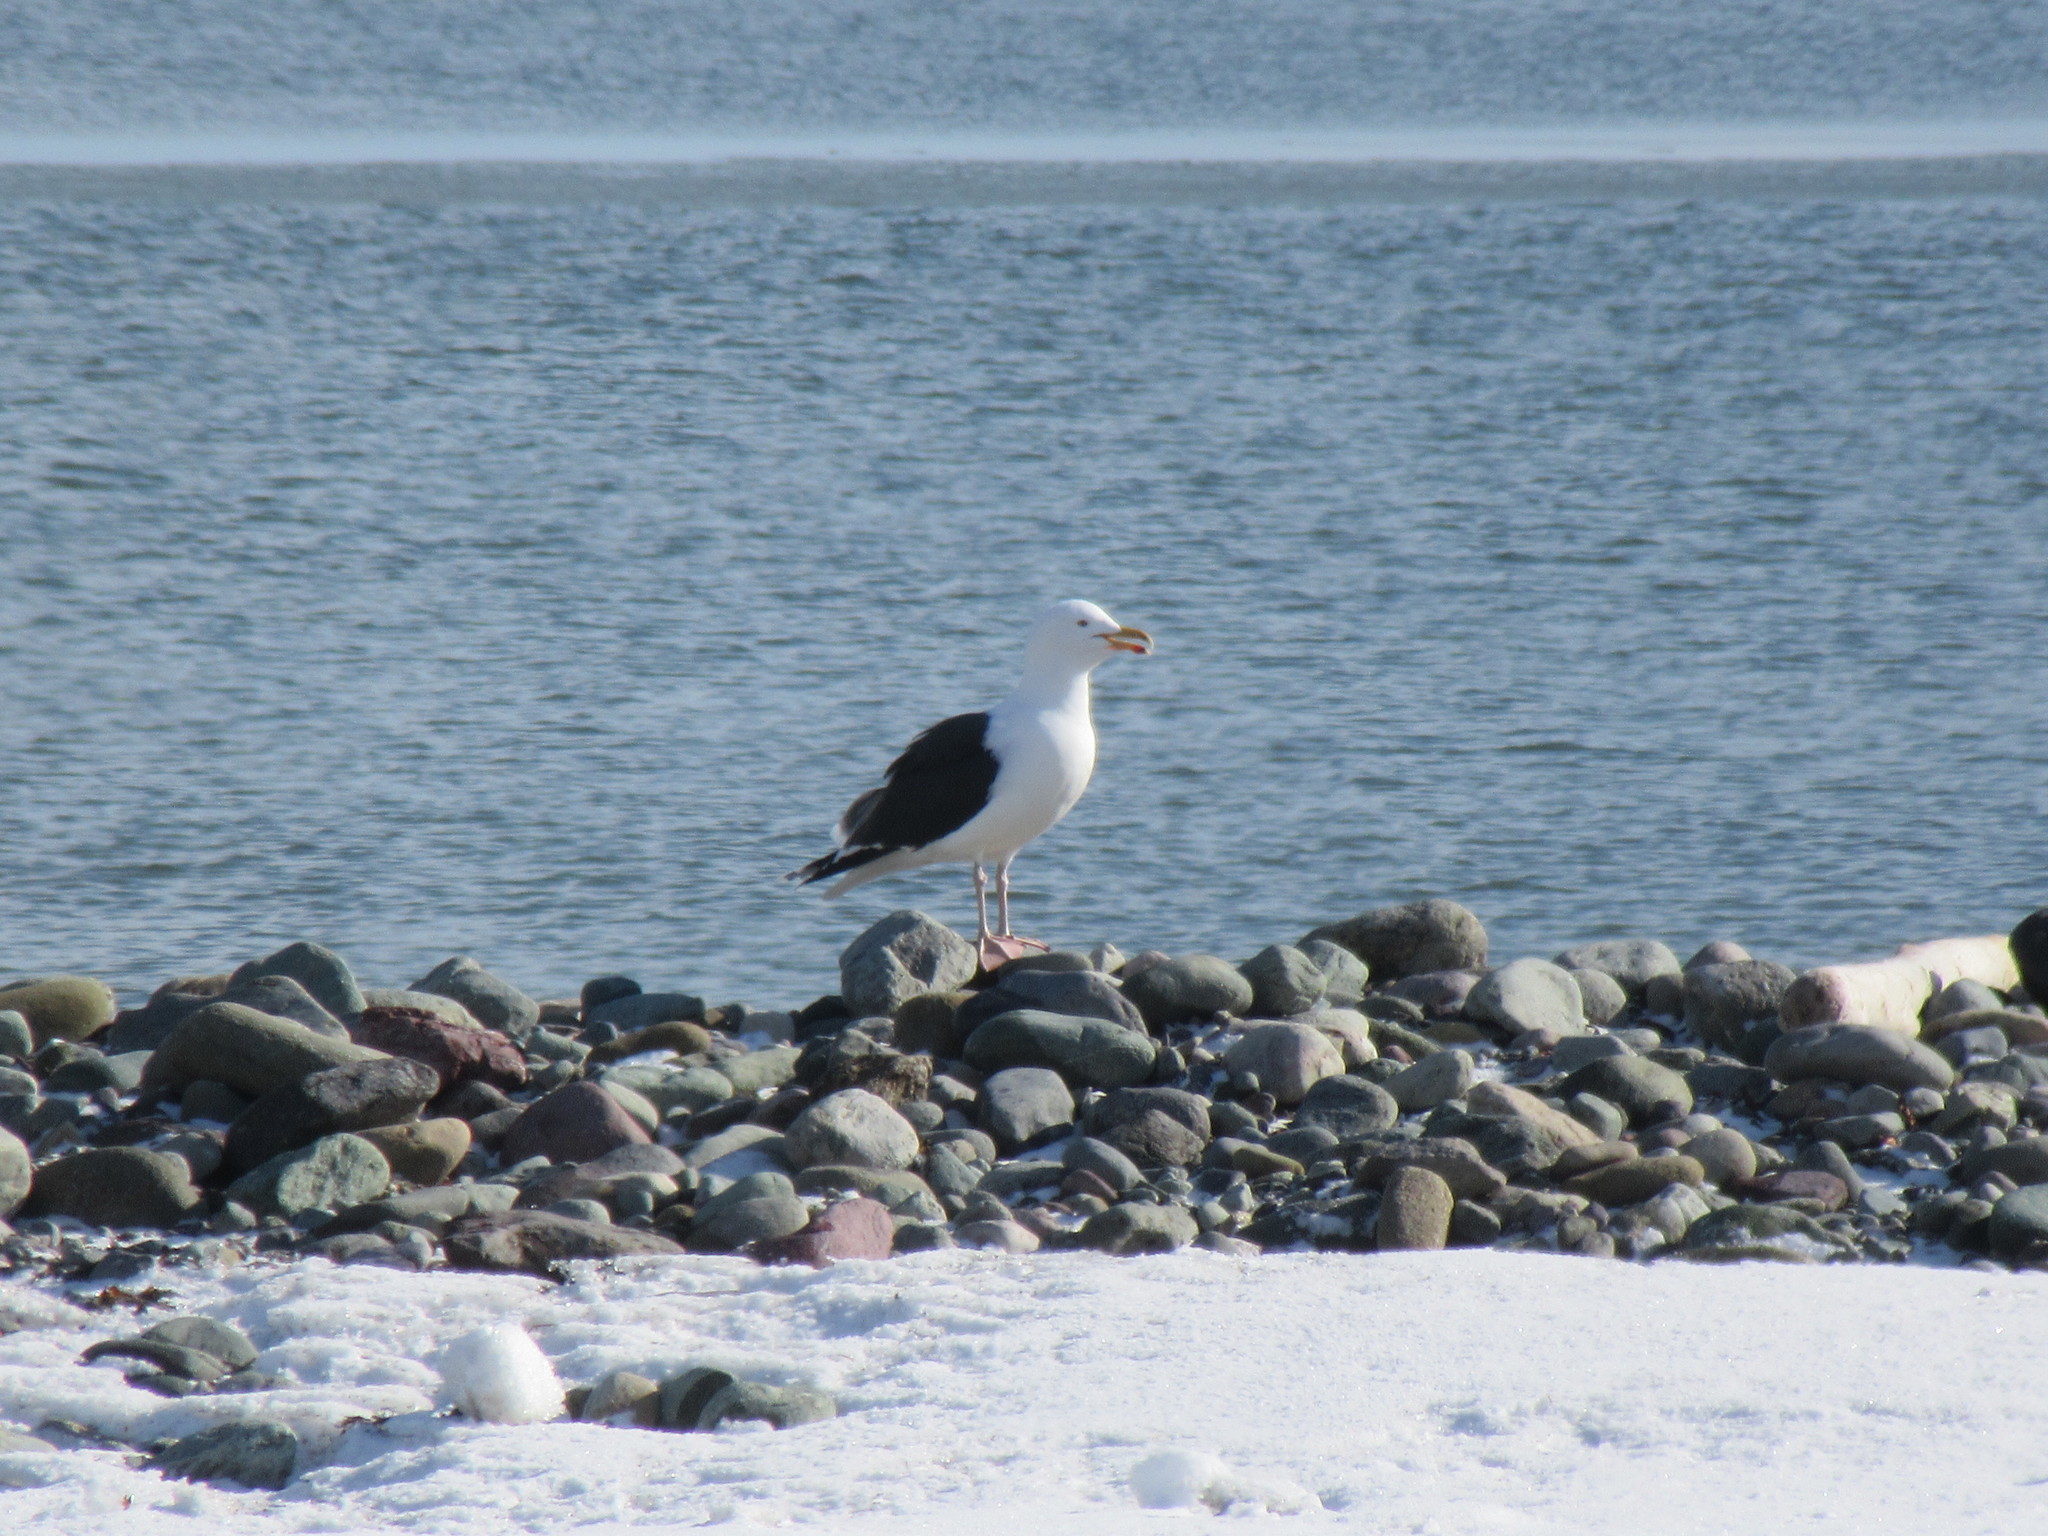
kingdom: Animalia
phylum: Chordata
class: Aves
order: Charadriiformes
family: Laridae
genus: Larus
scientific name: Larus marinus
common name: Great black-backed gull
